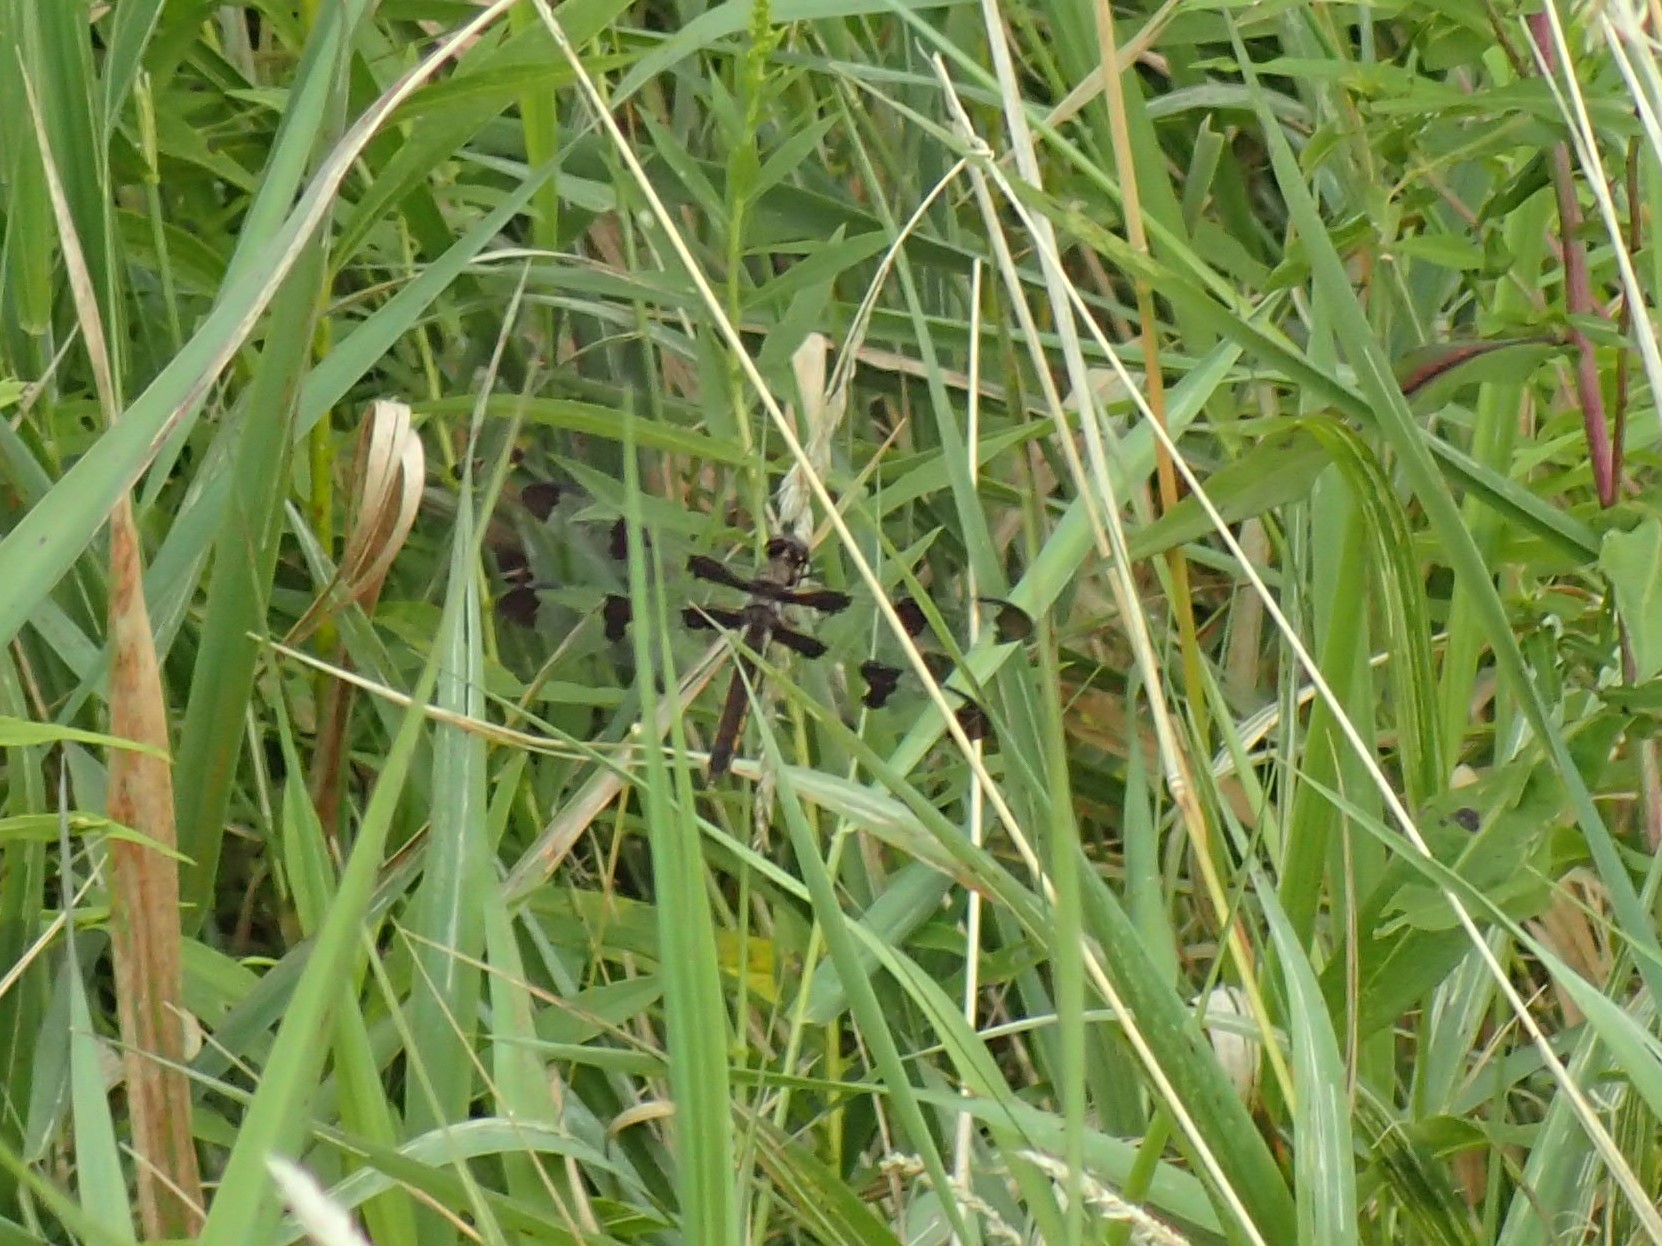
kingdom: Animalia
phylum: Arthropoda
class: Insecta
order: Odonata
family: Libellulidae
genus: Libellula
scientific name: Libellula pulchella
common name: Twelve-spotted skimmer
